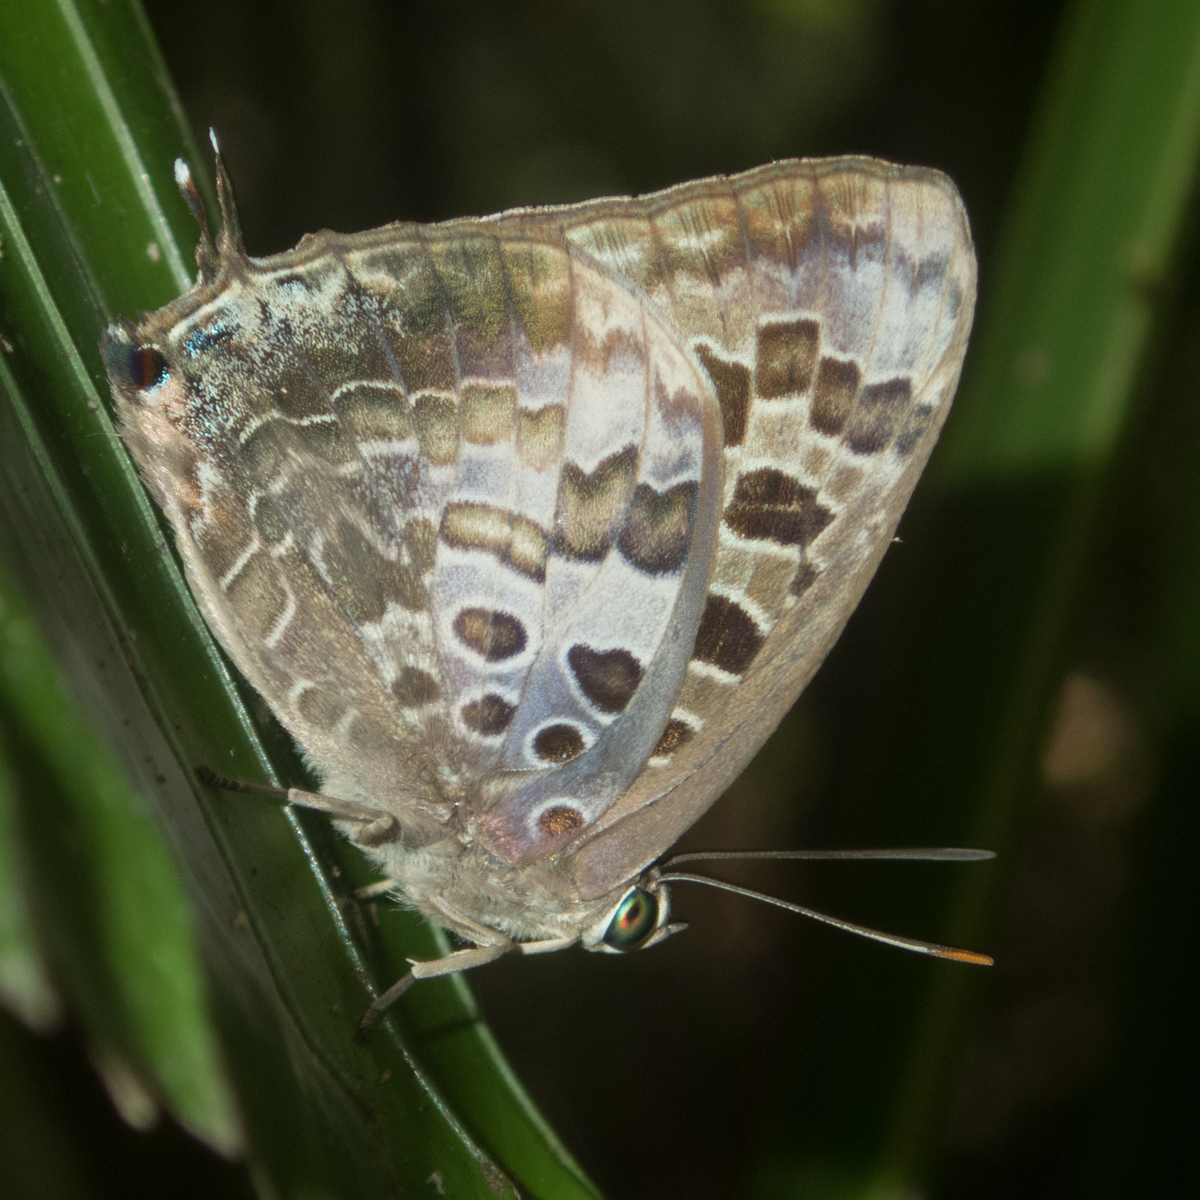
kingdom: Animalia
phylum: Arthropoda
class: Insecta
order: Lepidoptera
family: Lycaenidae
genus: Arhopala
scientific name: Arhopala hellenore
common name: Doherty's green oakblue
